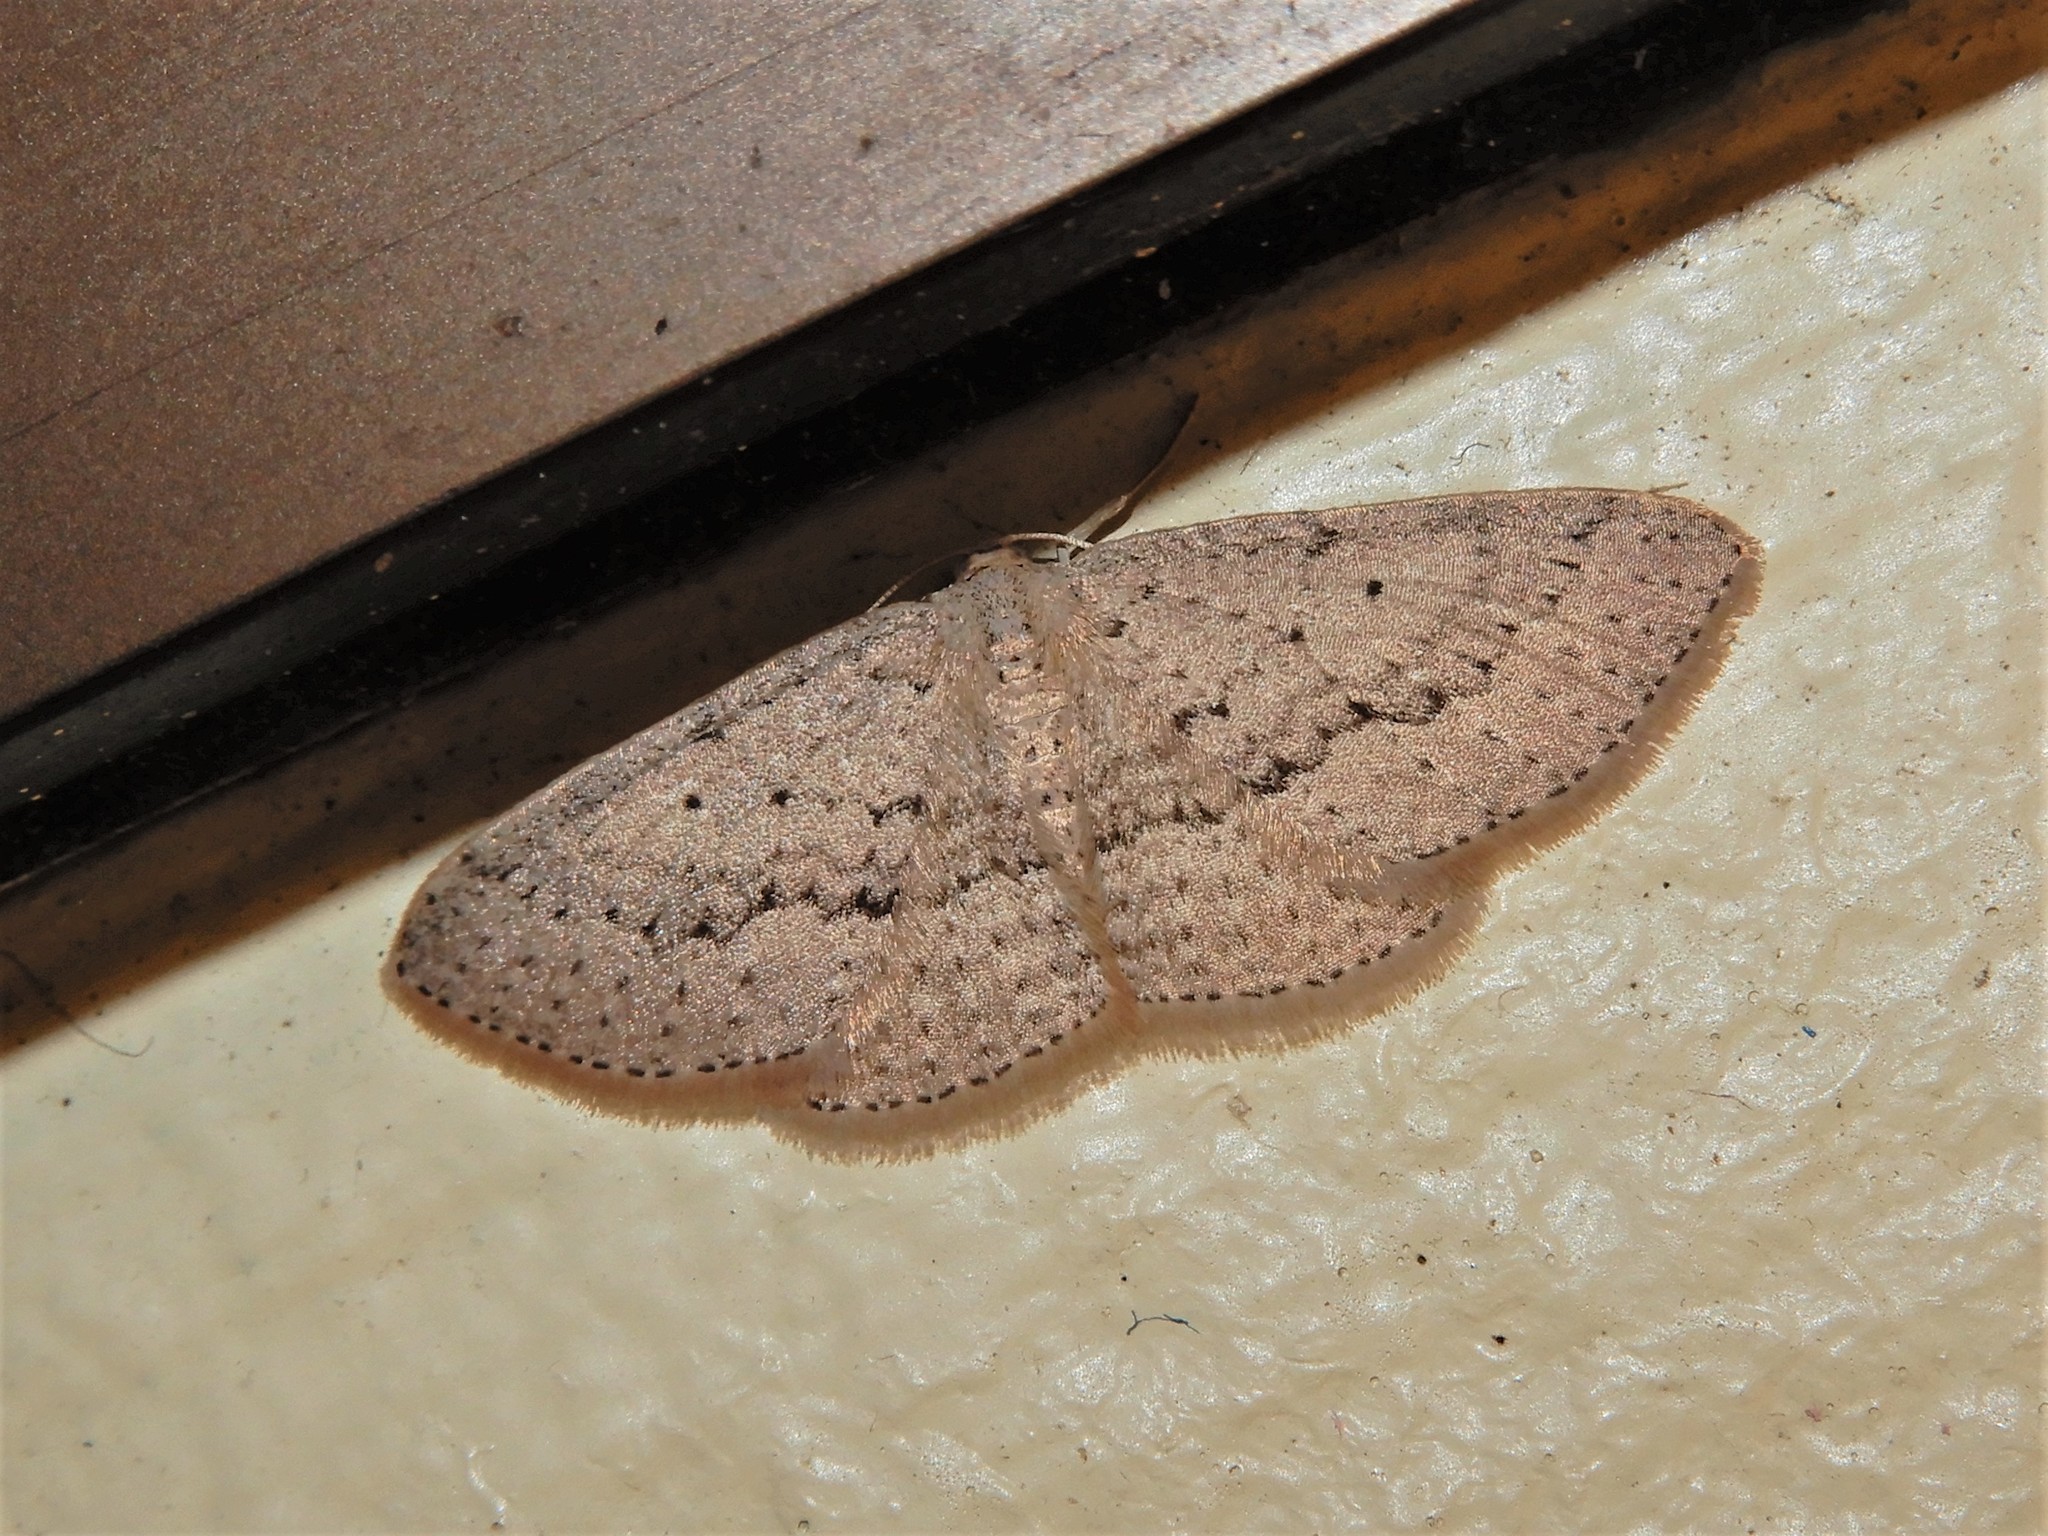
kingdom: Animalia
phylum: Arthropoda
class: Insecta
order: Lepidoptera
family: Geometridae
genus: Poecilasthena
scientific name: Poecilasthena schistaria
